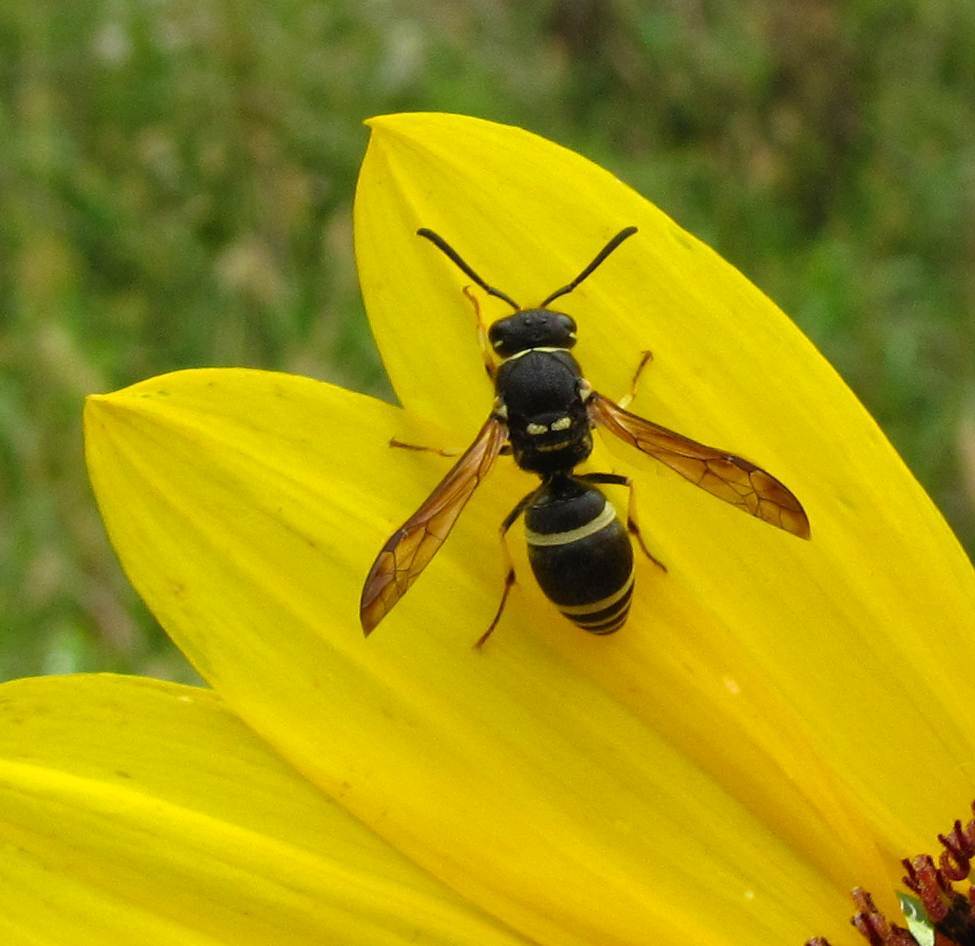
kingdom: Animalia
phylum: Arthropoda
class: Insecta
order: Hymenoptera
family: Vespidae
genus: Ancistrocerus
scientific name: Ancistrocerus catskill
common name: Vespid wasp
